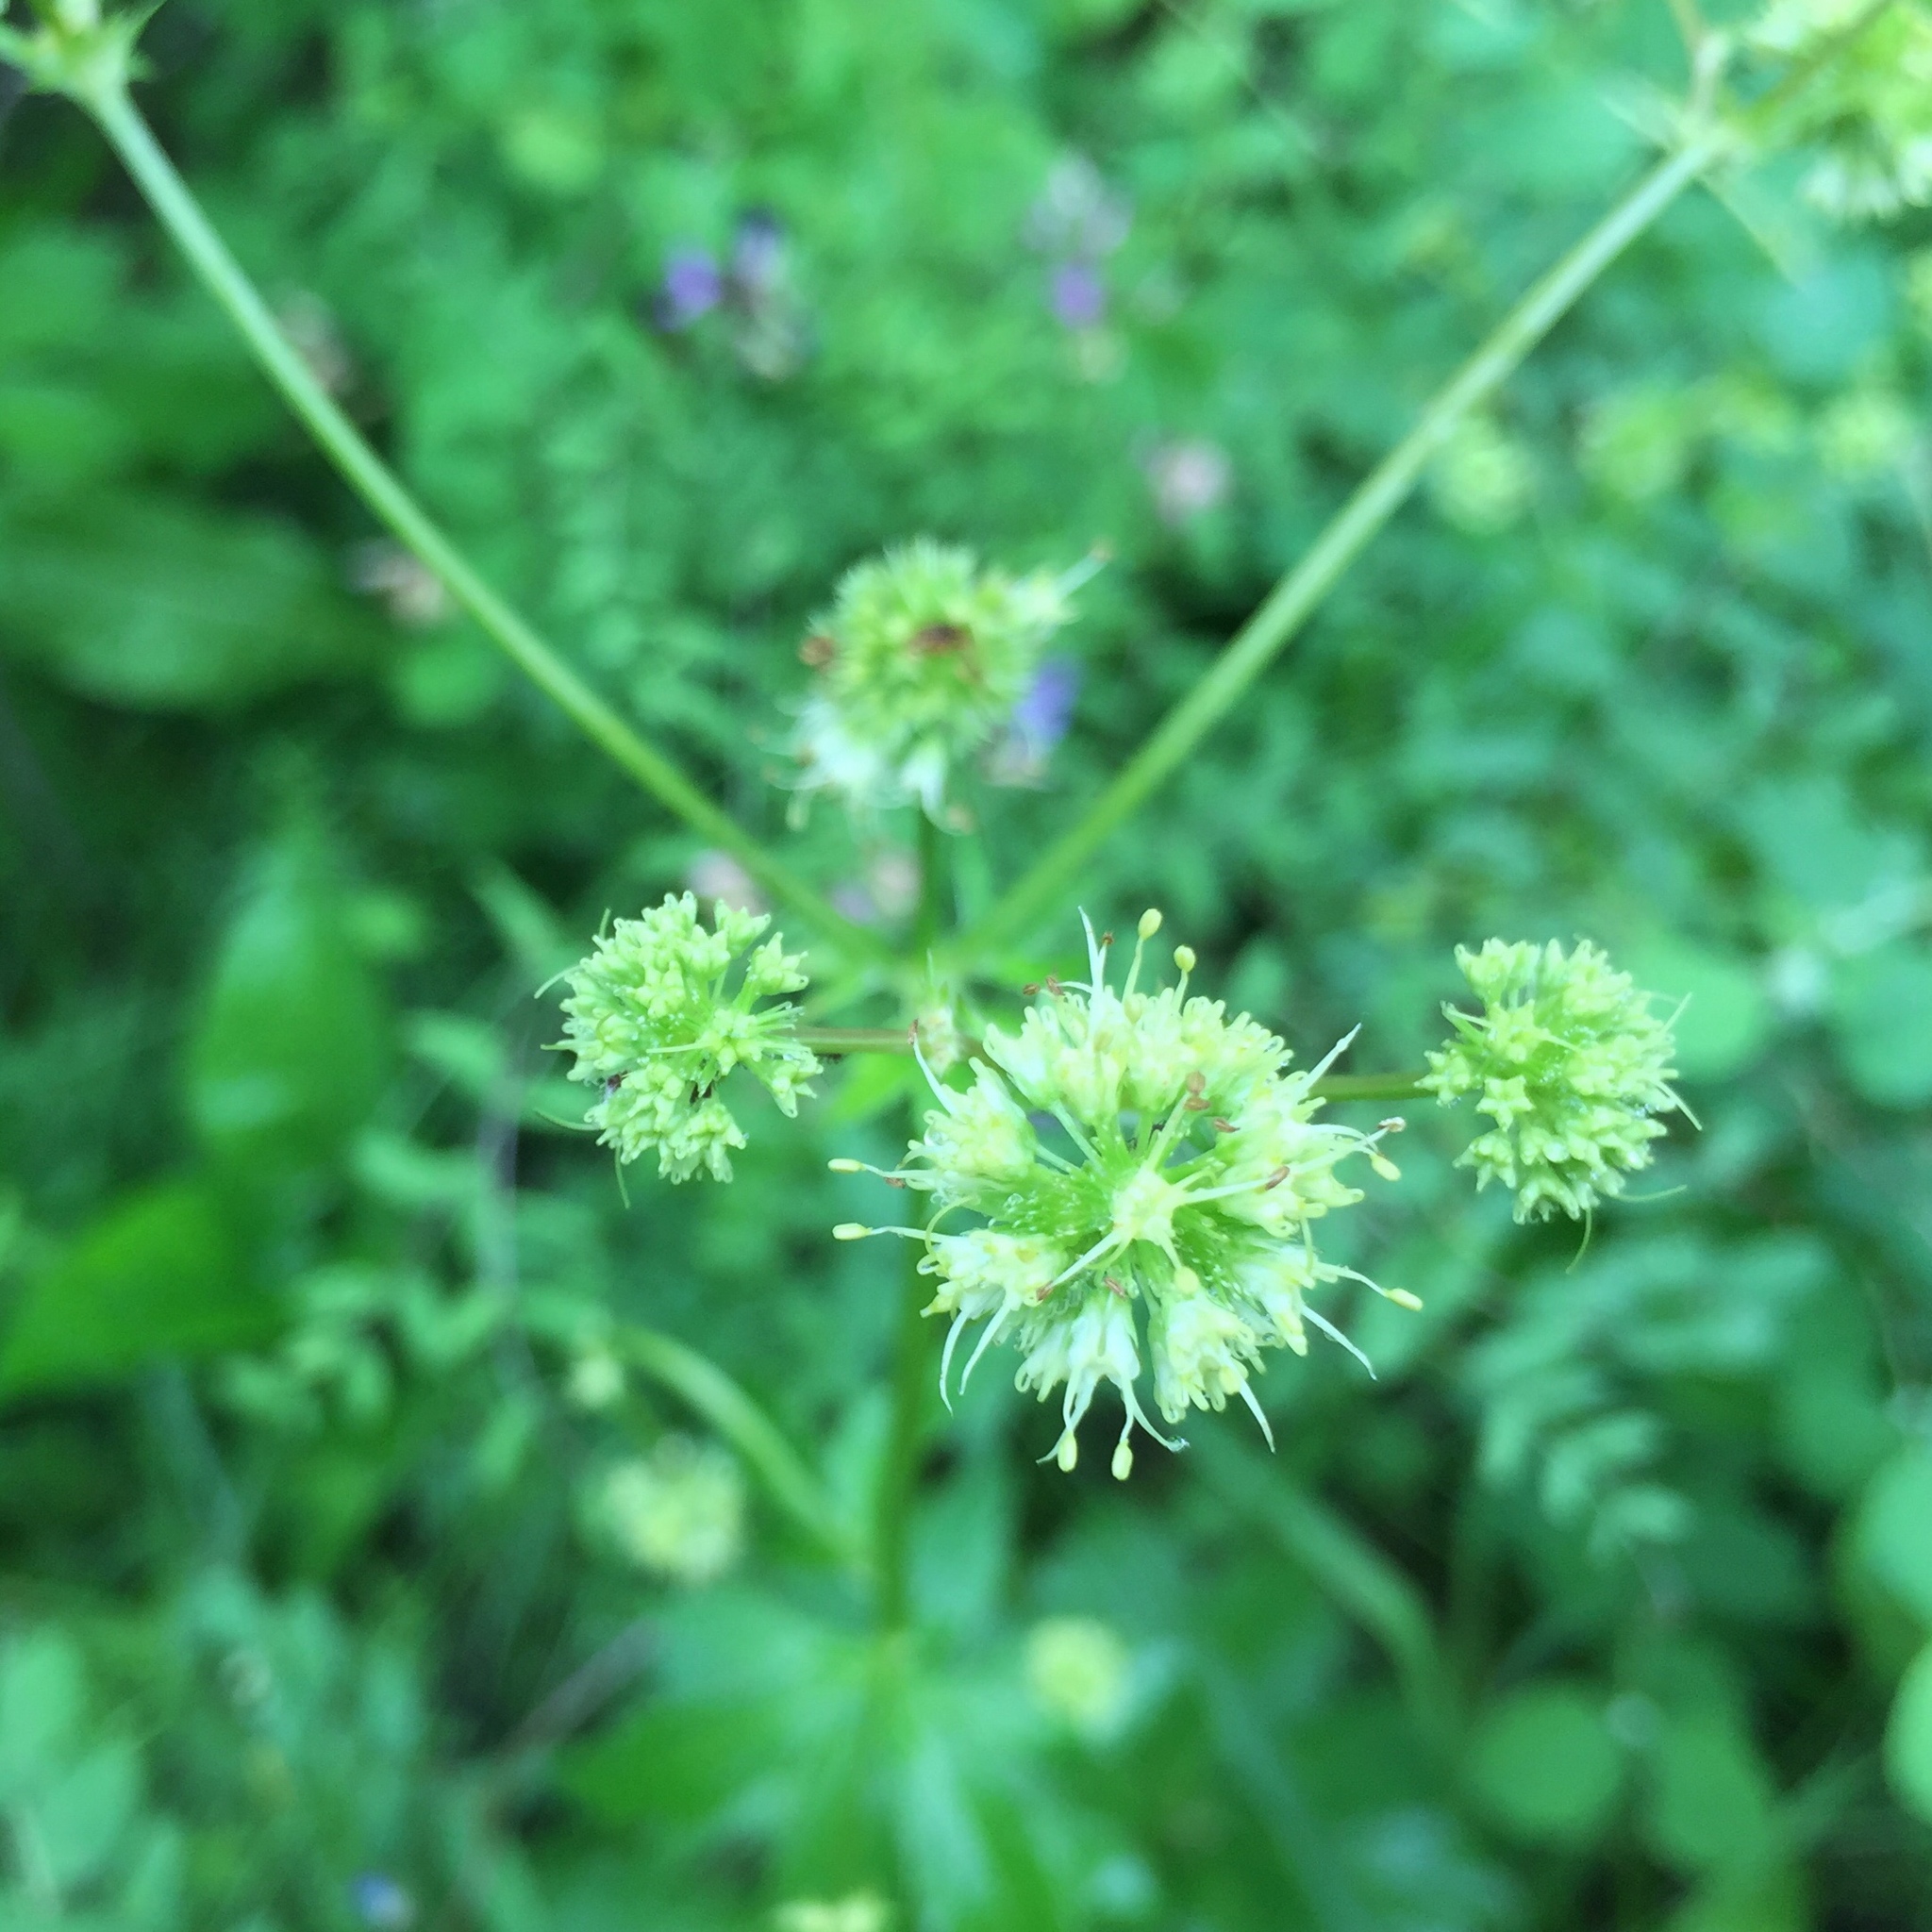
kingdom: Plantae
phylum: Tracheophyta
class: Magnoliopsida
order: Apiales
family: Apiaceae
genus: Sanicula
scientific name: Sanicula marilandica
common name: Black snakeroot
